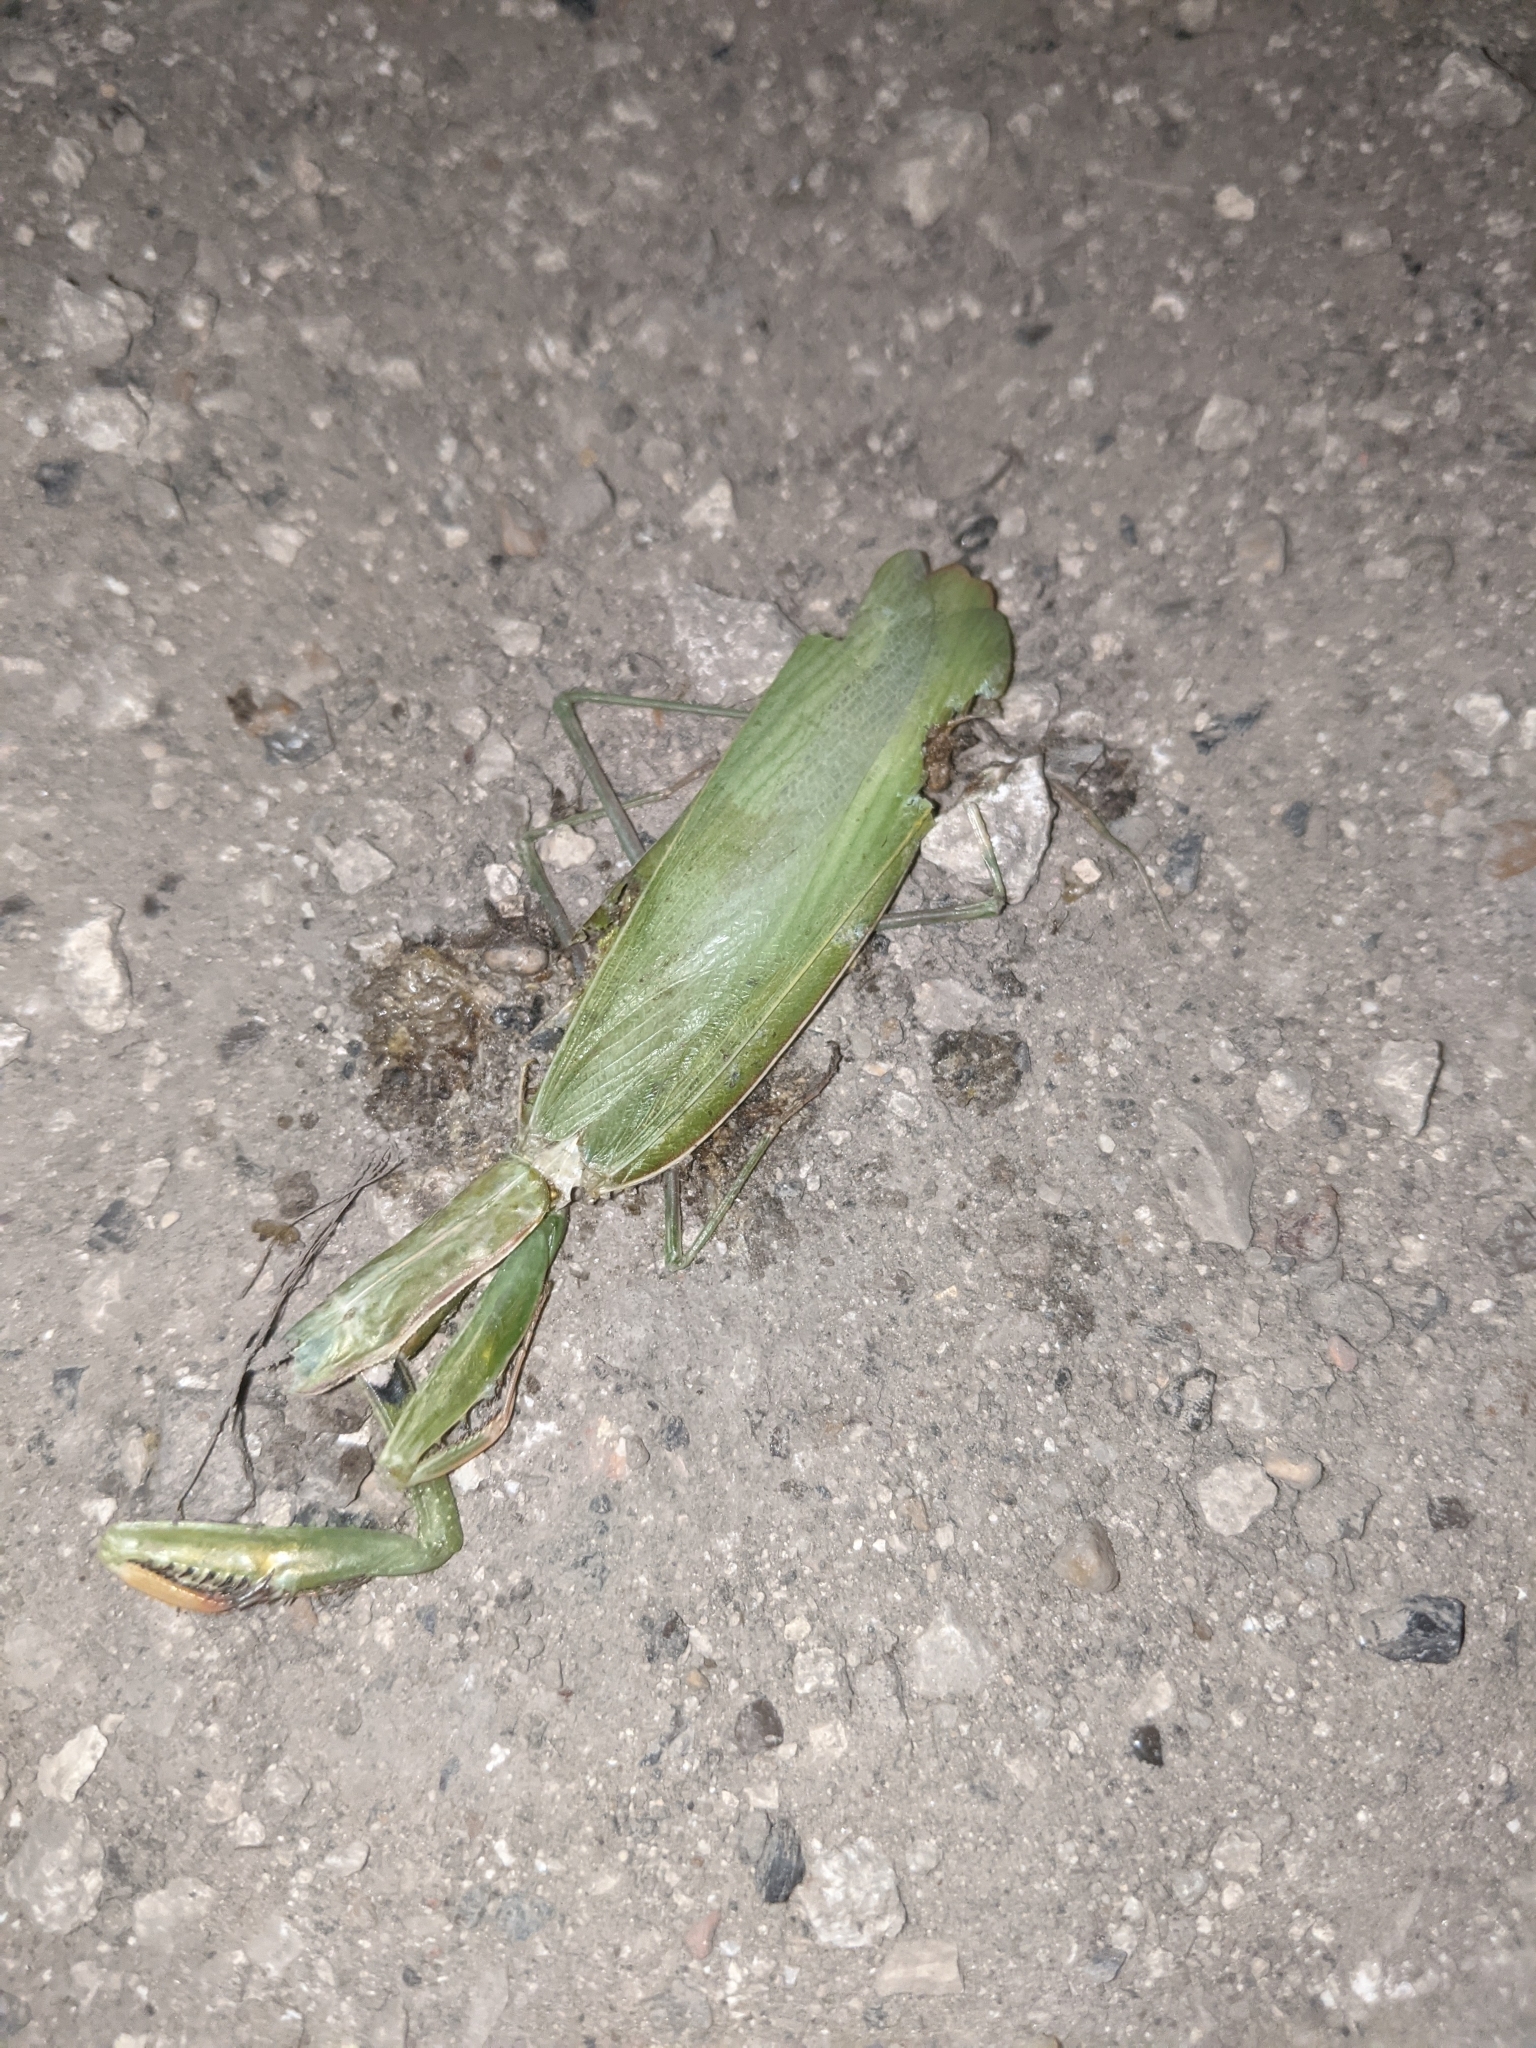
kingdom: Animalia
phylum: Arthropoda
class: Insecta
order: Mantodea
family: Mantidae
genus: Mantis
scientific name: Mantis religiosa
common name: Praying mantis
